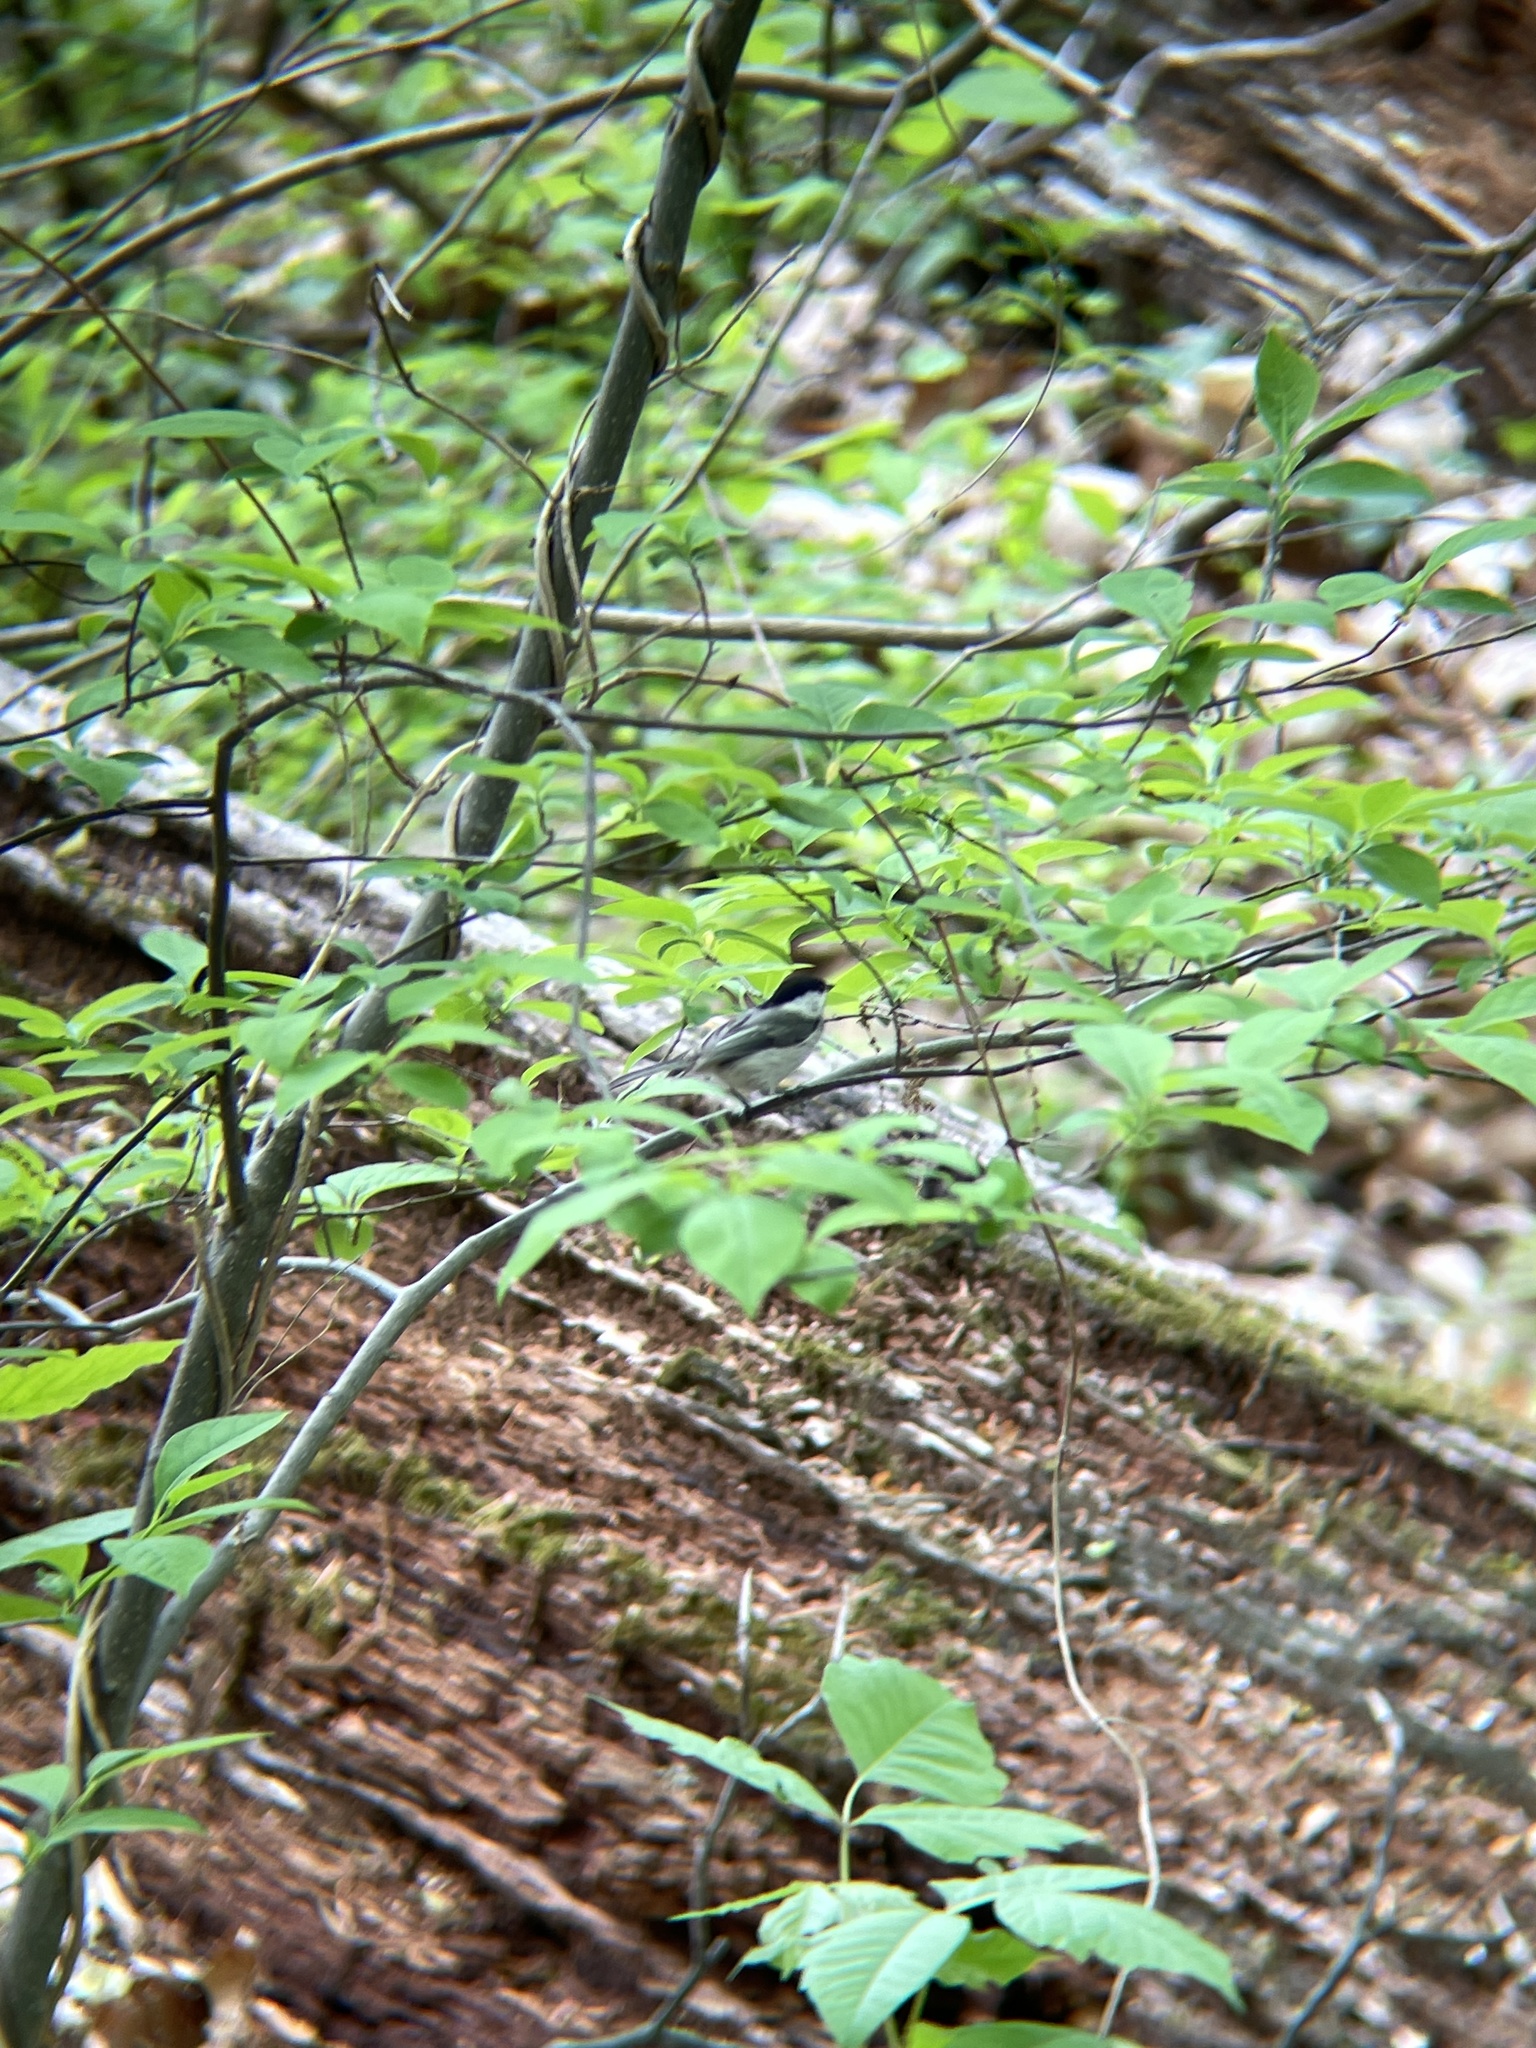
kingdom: Animalia
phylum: Chordata
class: Aves
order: Passeriformes
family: Paridae
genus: Poecile
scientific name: Poecile carolinensis
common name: Carolina chickadee
